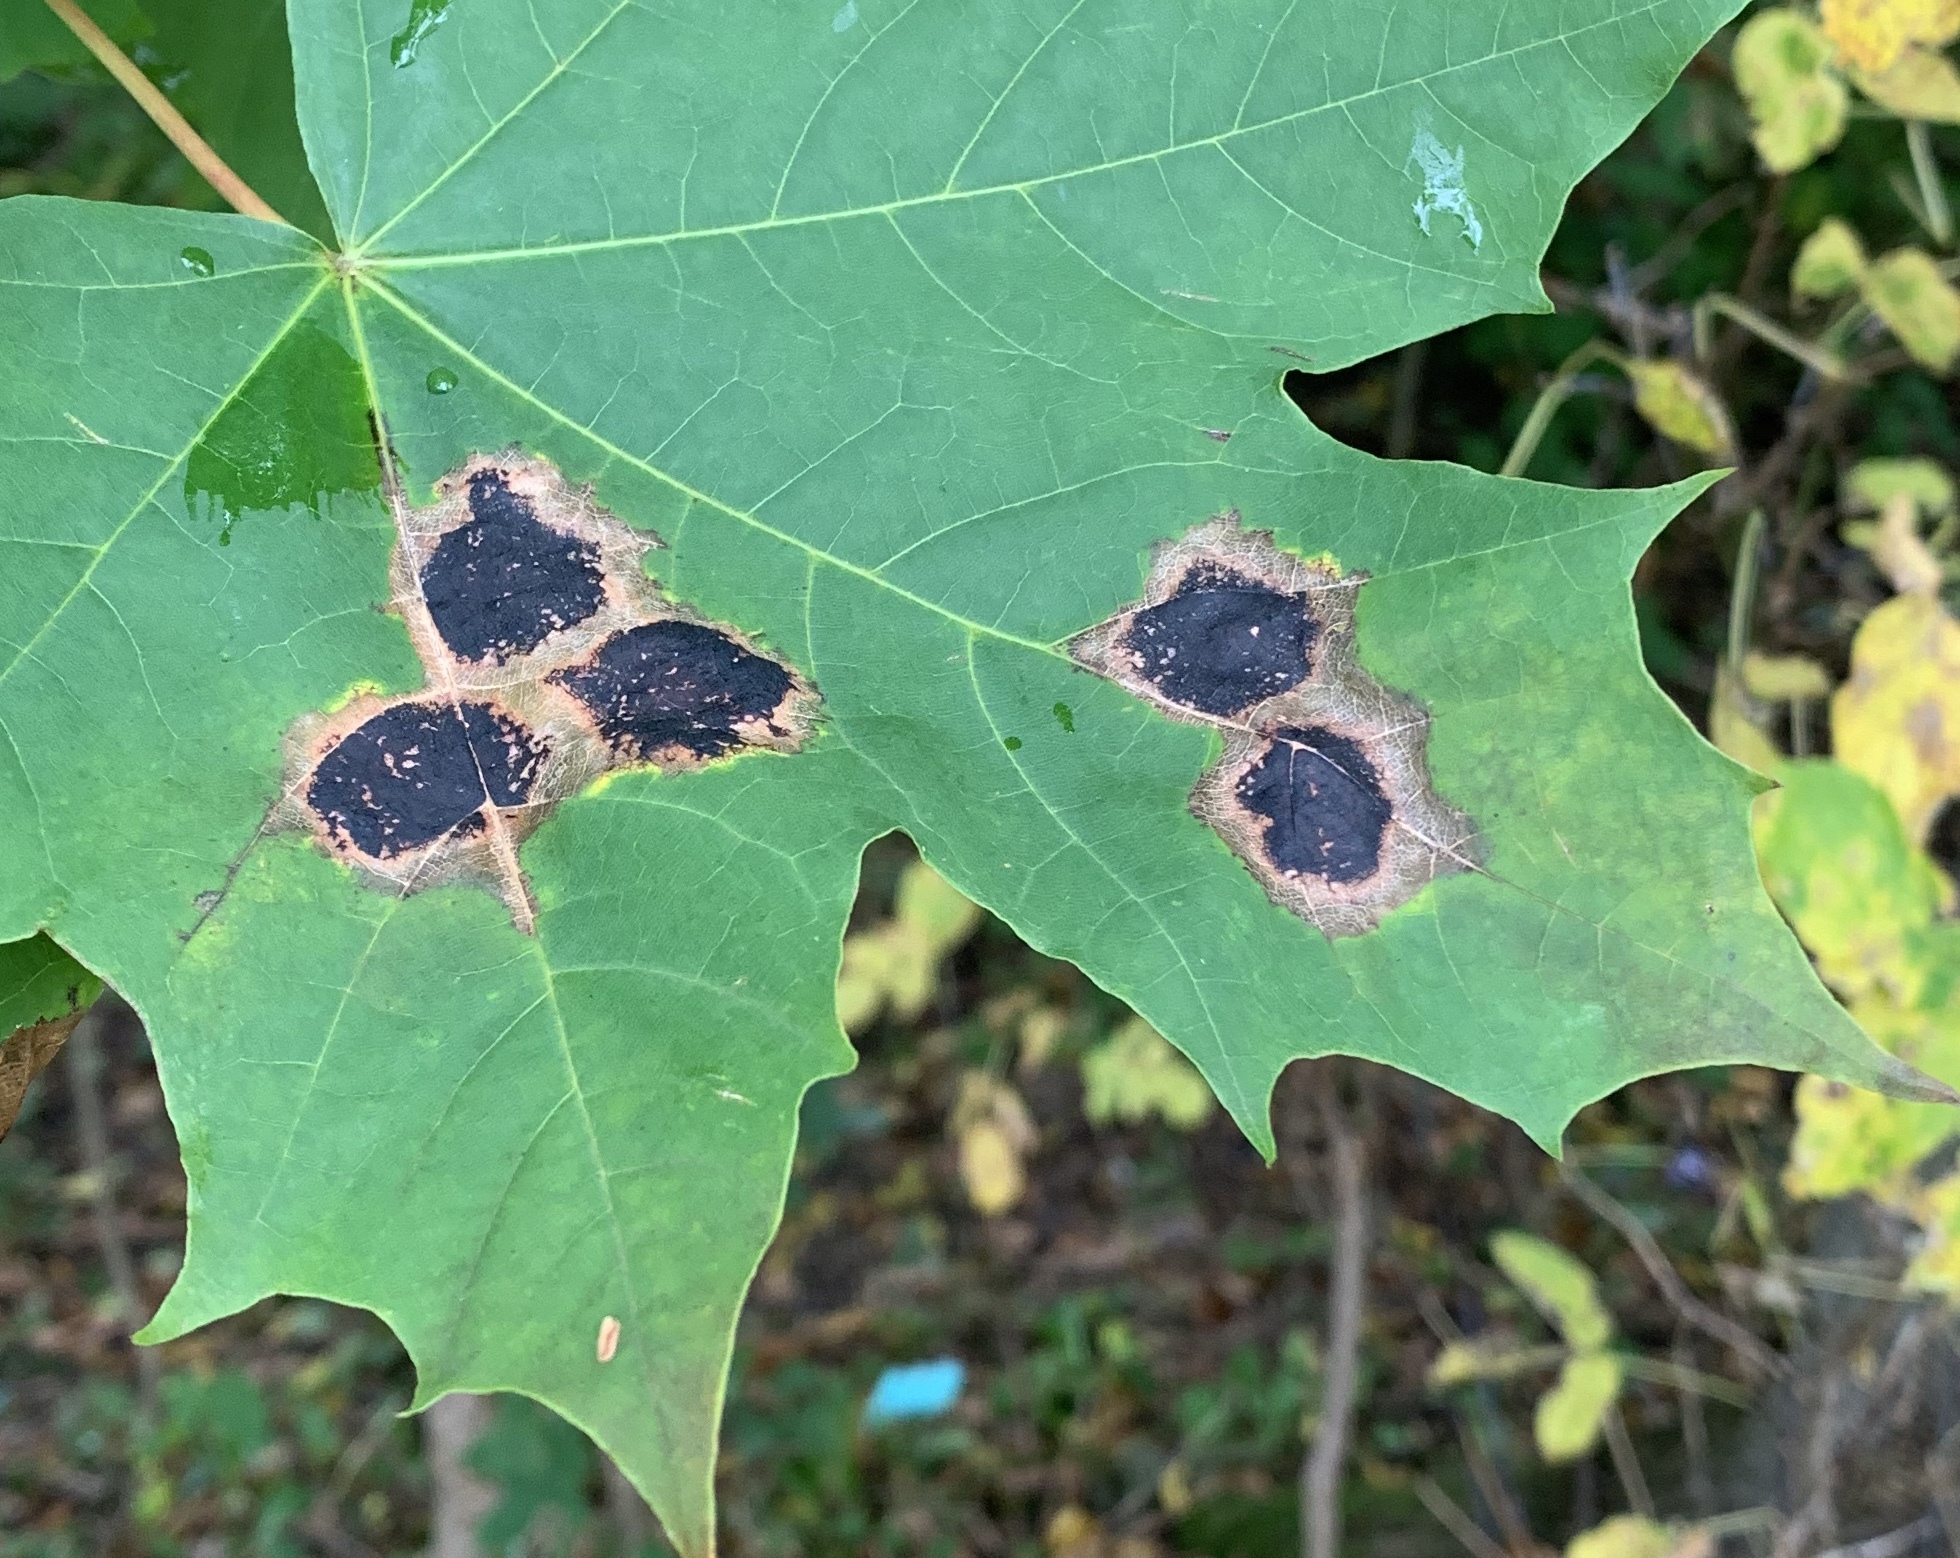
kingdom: Fungi
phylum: Ascomycota
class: Leotiomycetes
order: Rhytismatales
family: Rhytismataceae
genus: Rhytisma
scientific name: Rhytisma acerinum
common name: European tar spot
